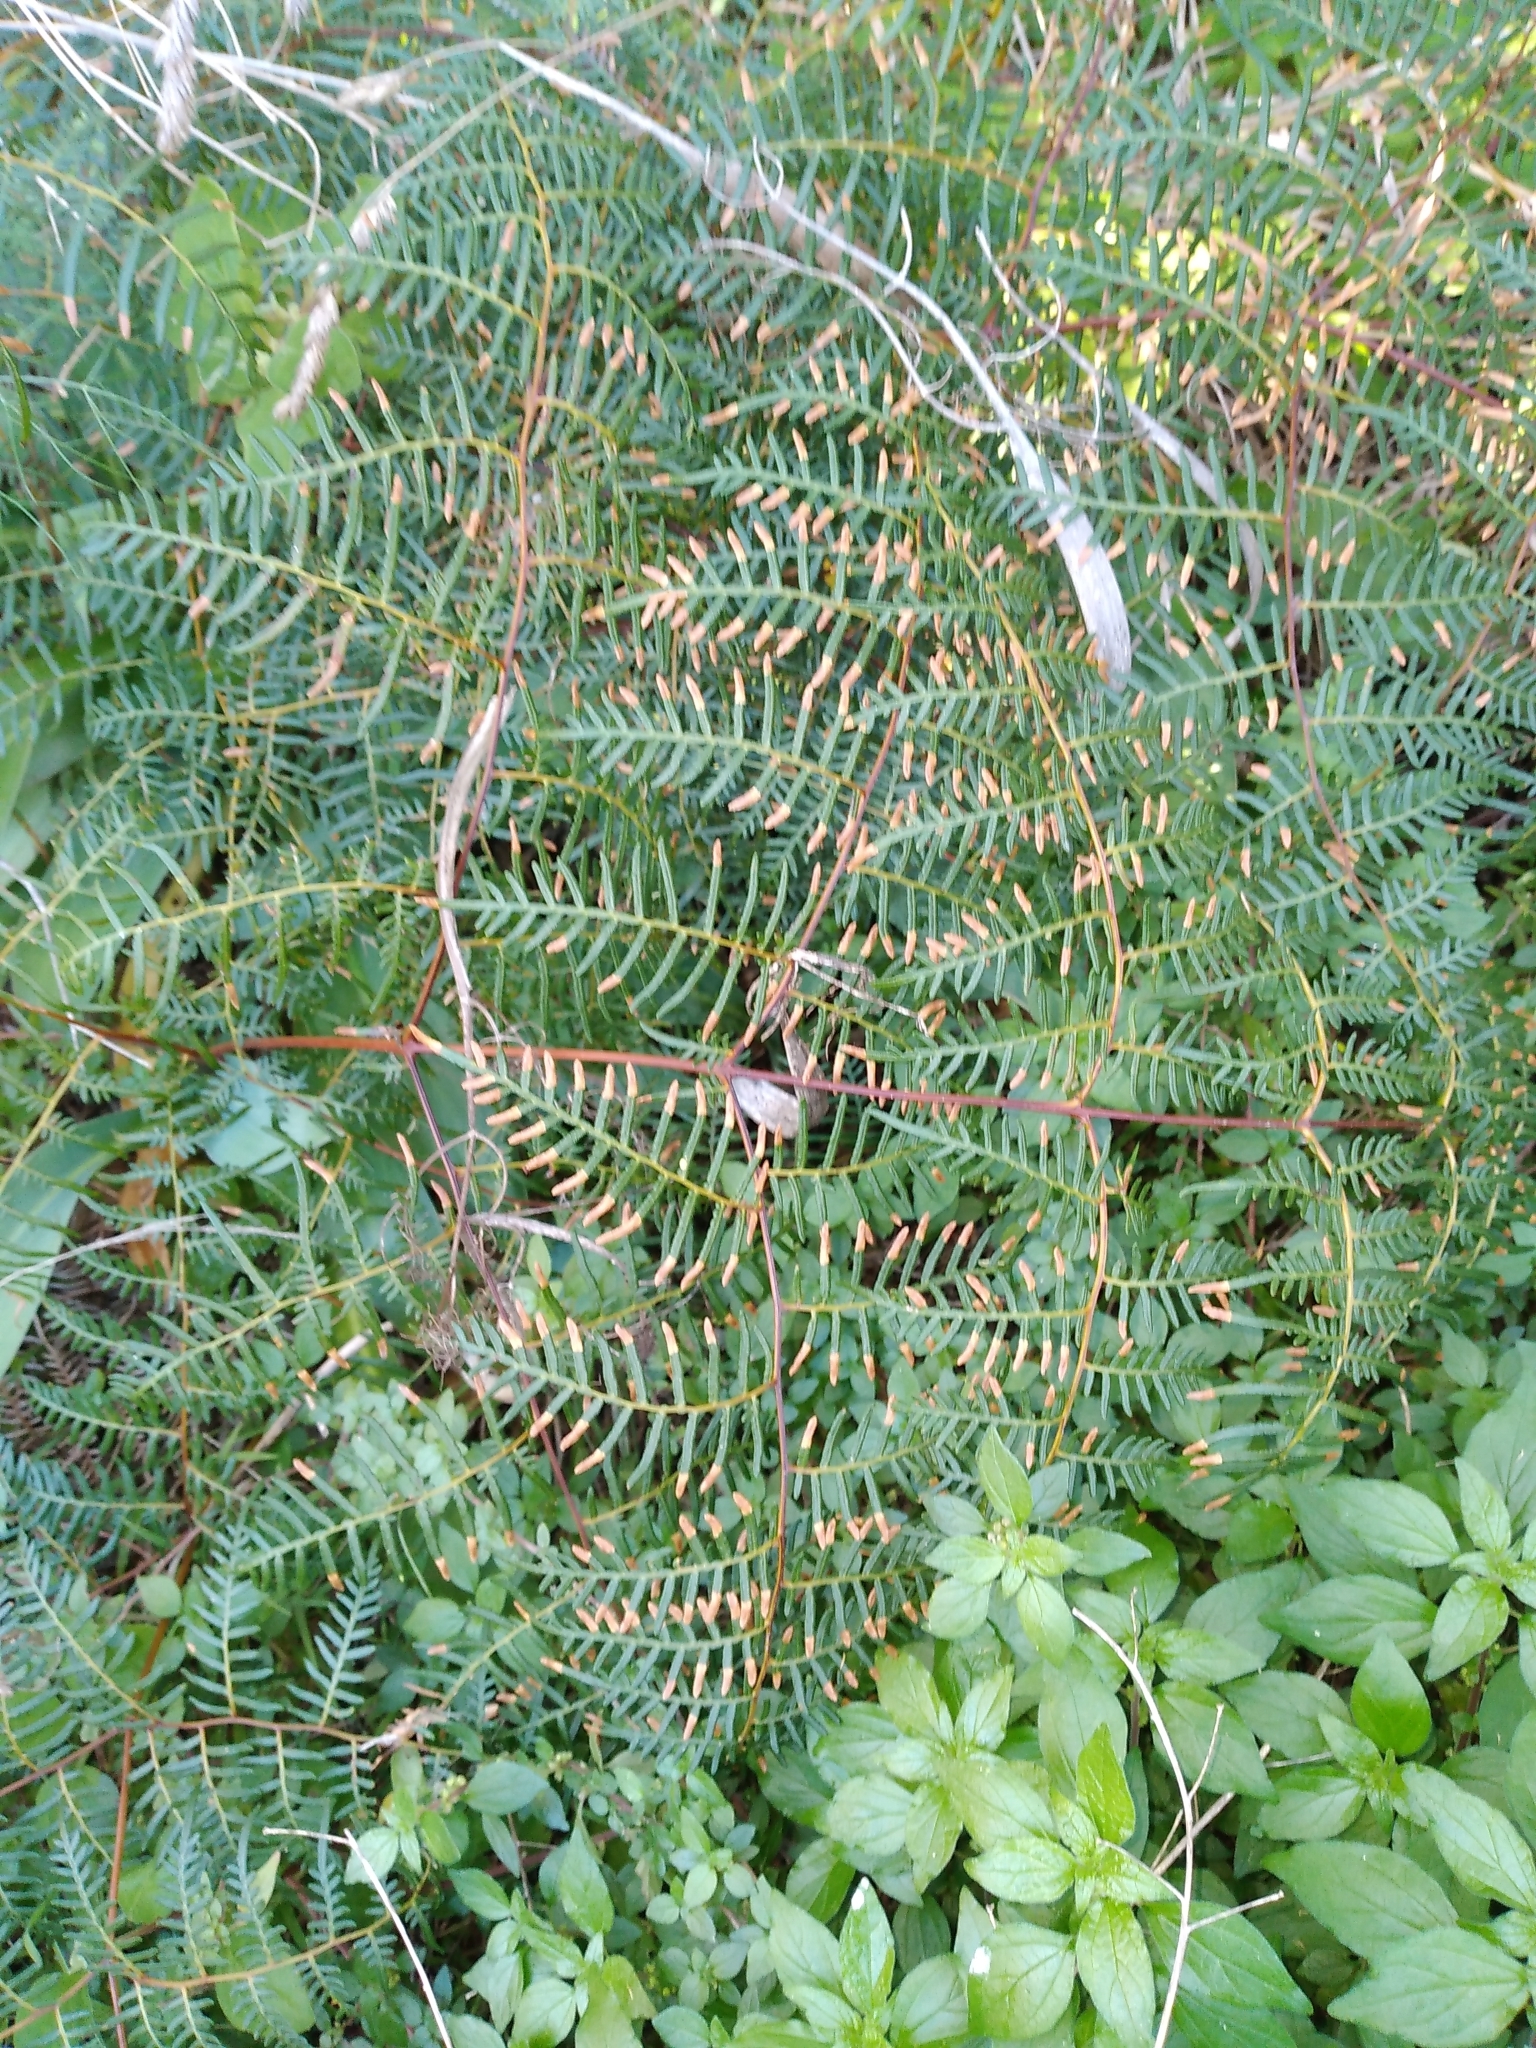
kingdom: Plantae
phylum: Tracheophyta
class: Polypodiopsida
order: Polypodiales
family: Dennstaedtiaceae
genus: Pteridium
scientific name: Pteridium esculentum
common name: Bracken fern
